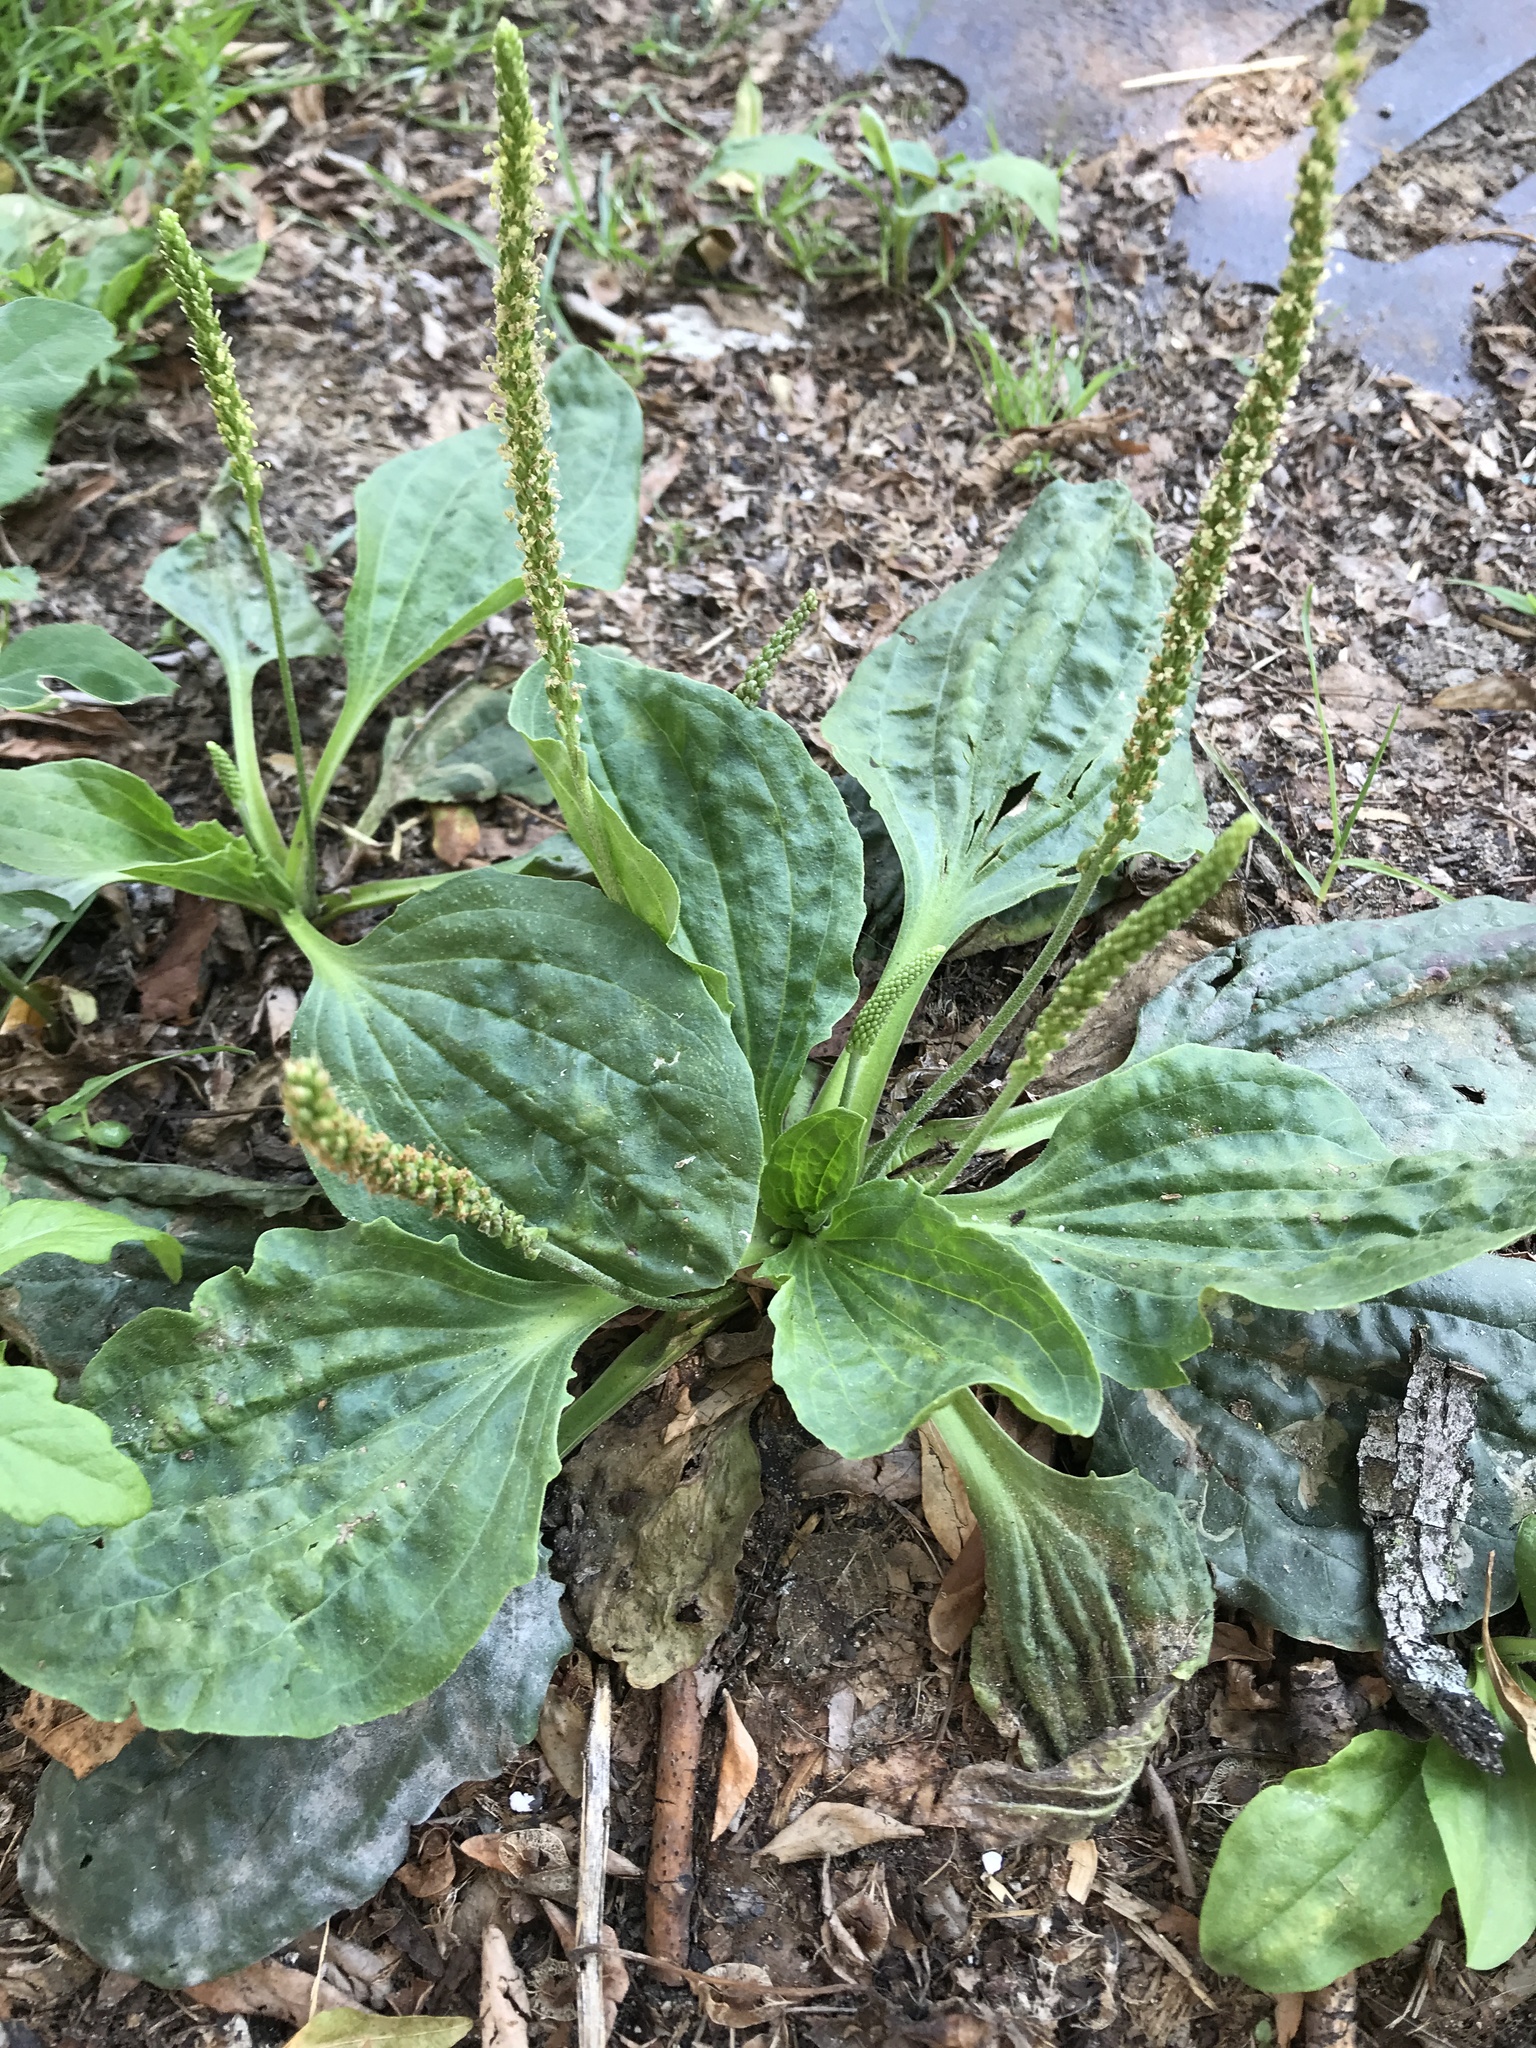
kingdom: Plantae
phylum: Tracheophyta
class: Magnoliopsida
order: Lamiales
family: Plantaginaceae
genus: Plantago
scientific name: Plantago major
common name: Common plantain
